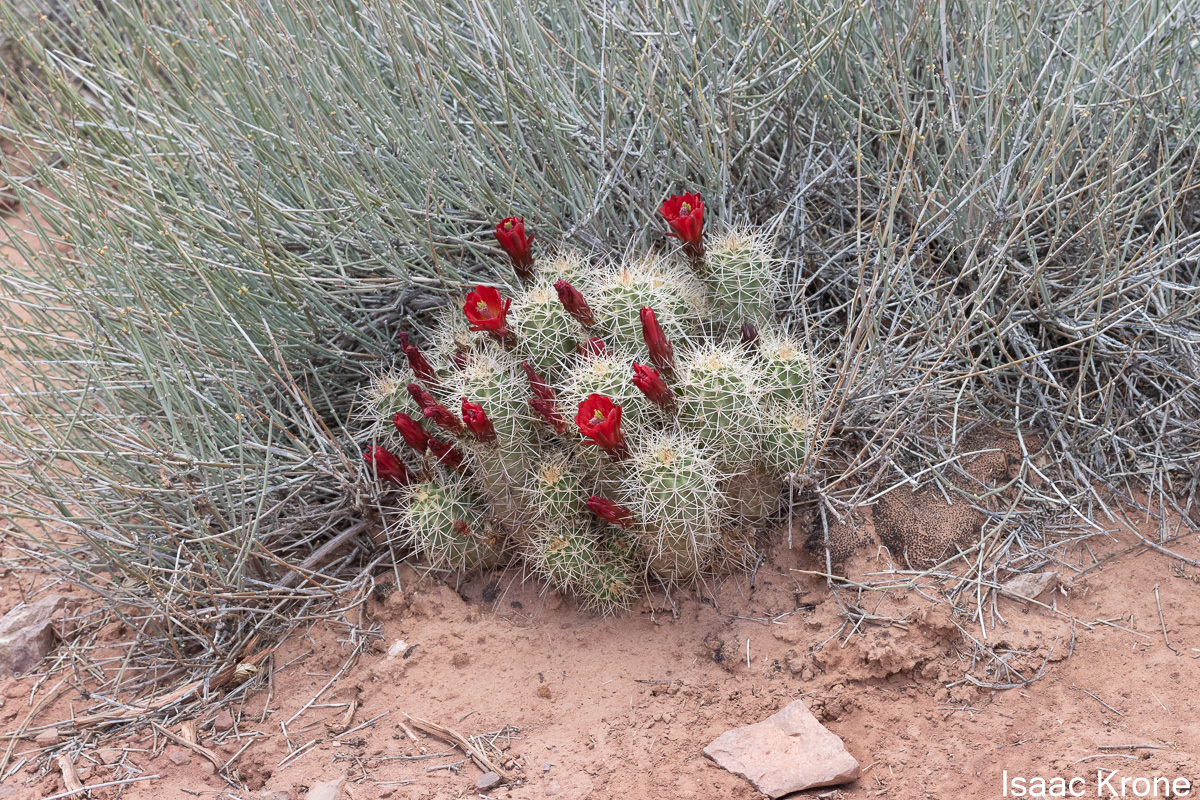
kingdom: Plantae
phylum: Tracheophyta
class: Magnoliopsida
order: Caryophyllales
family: Cactaceae
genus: Echinocereus
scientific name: Echinocereus triglochidiatus
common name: Claretcup hedgehog
